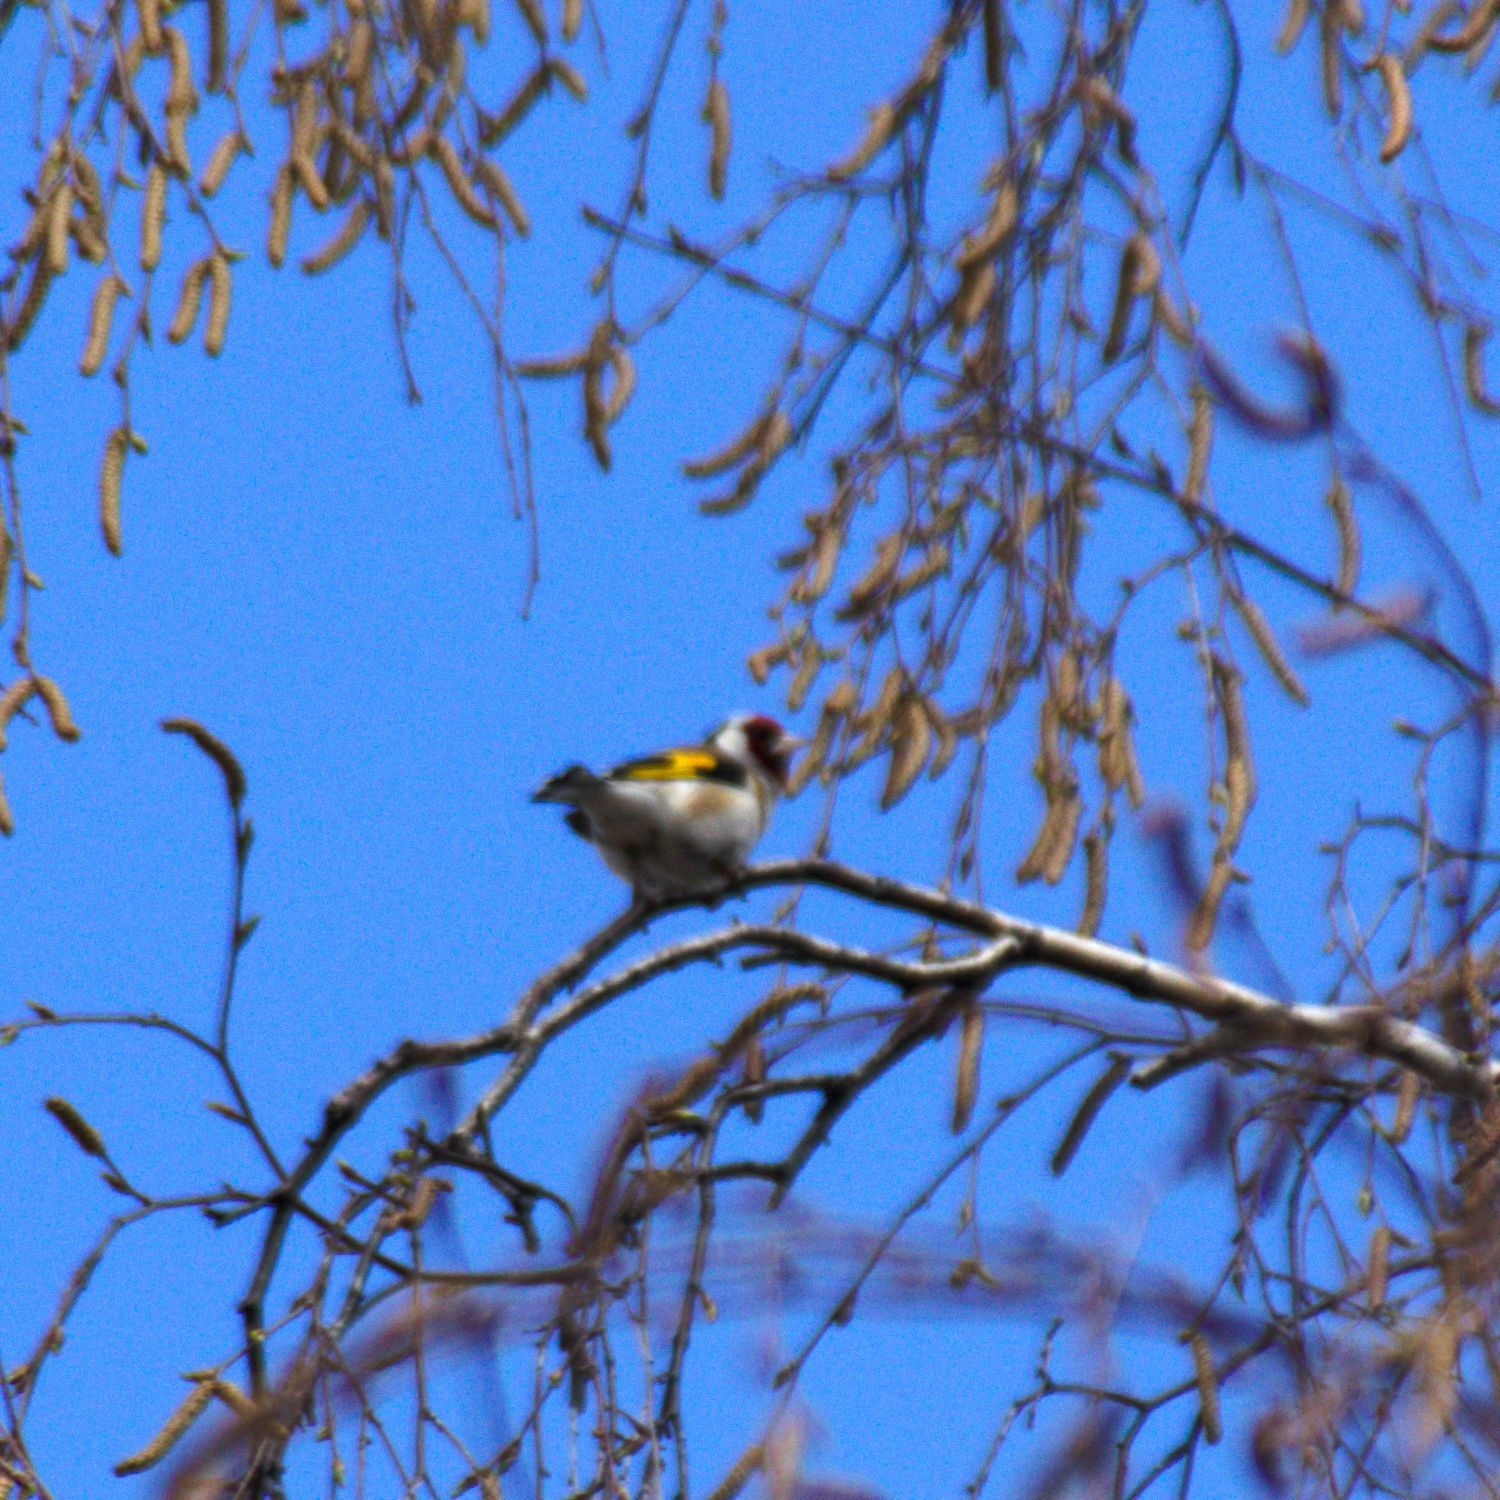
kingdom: Animalia
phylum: Chordata
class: Aves
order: Passeriformes
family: Fringillidae
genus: Carduelis
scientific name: Carduelis carduelis
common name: European goldfinch
